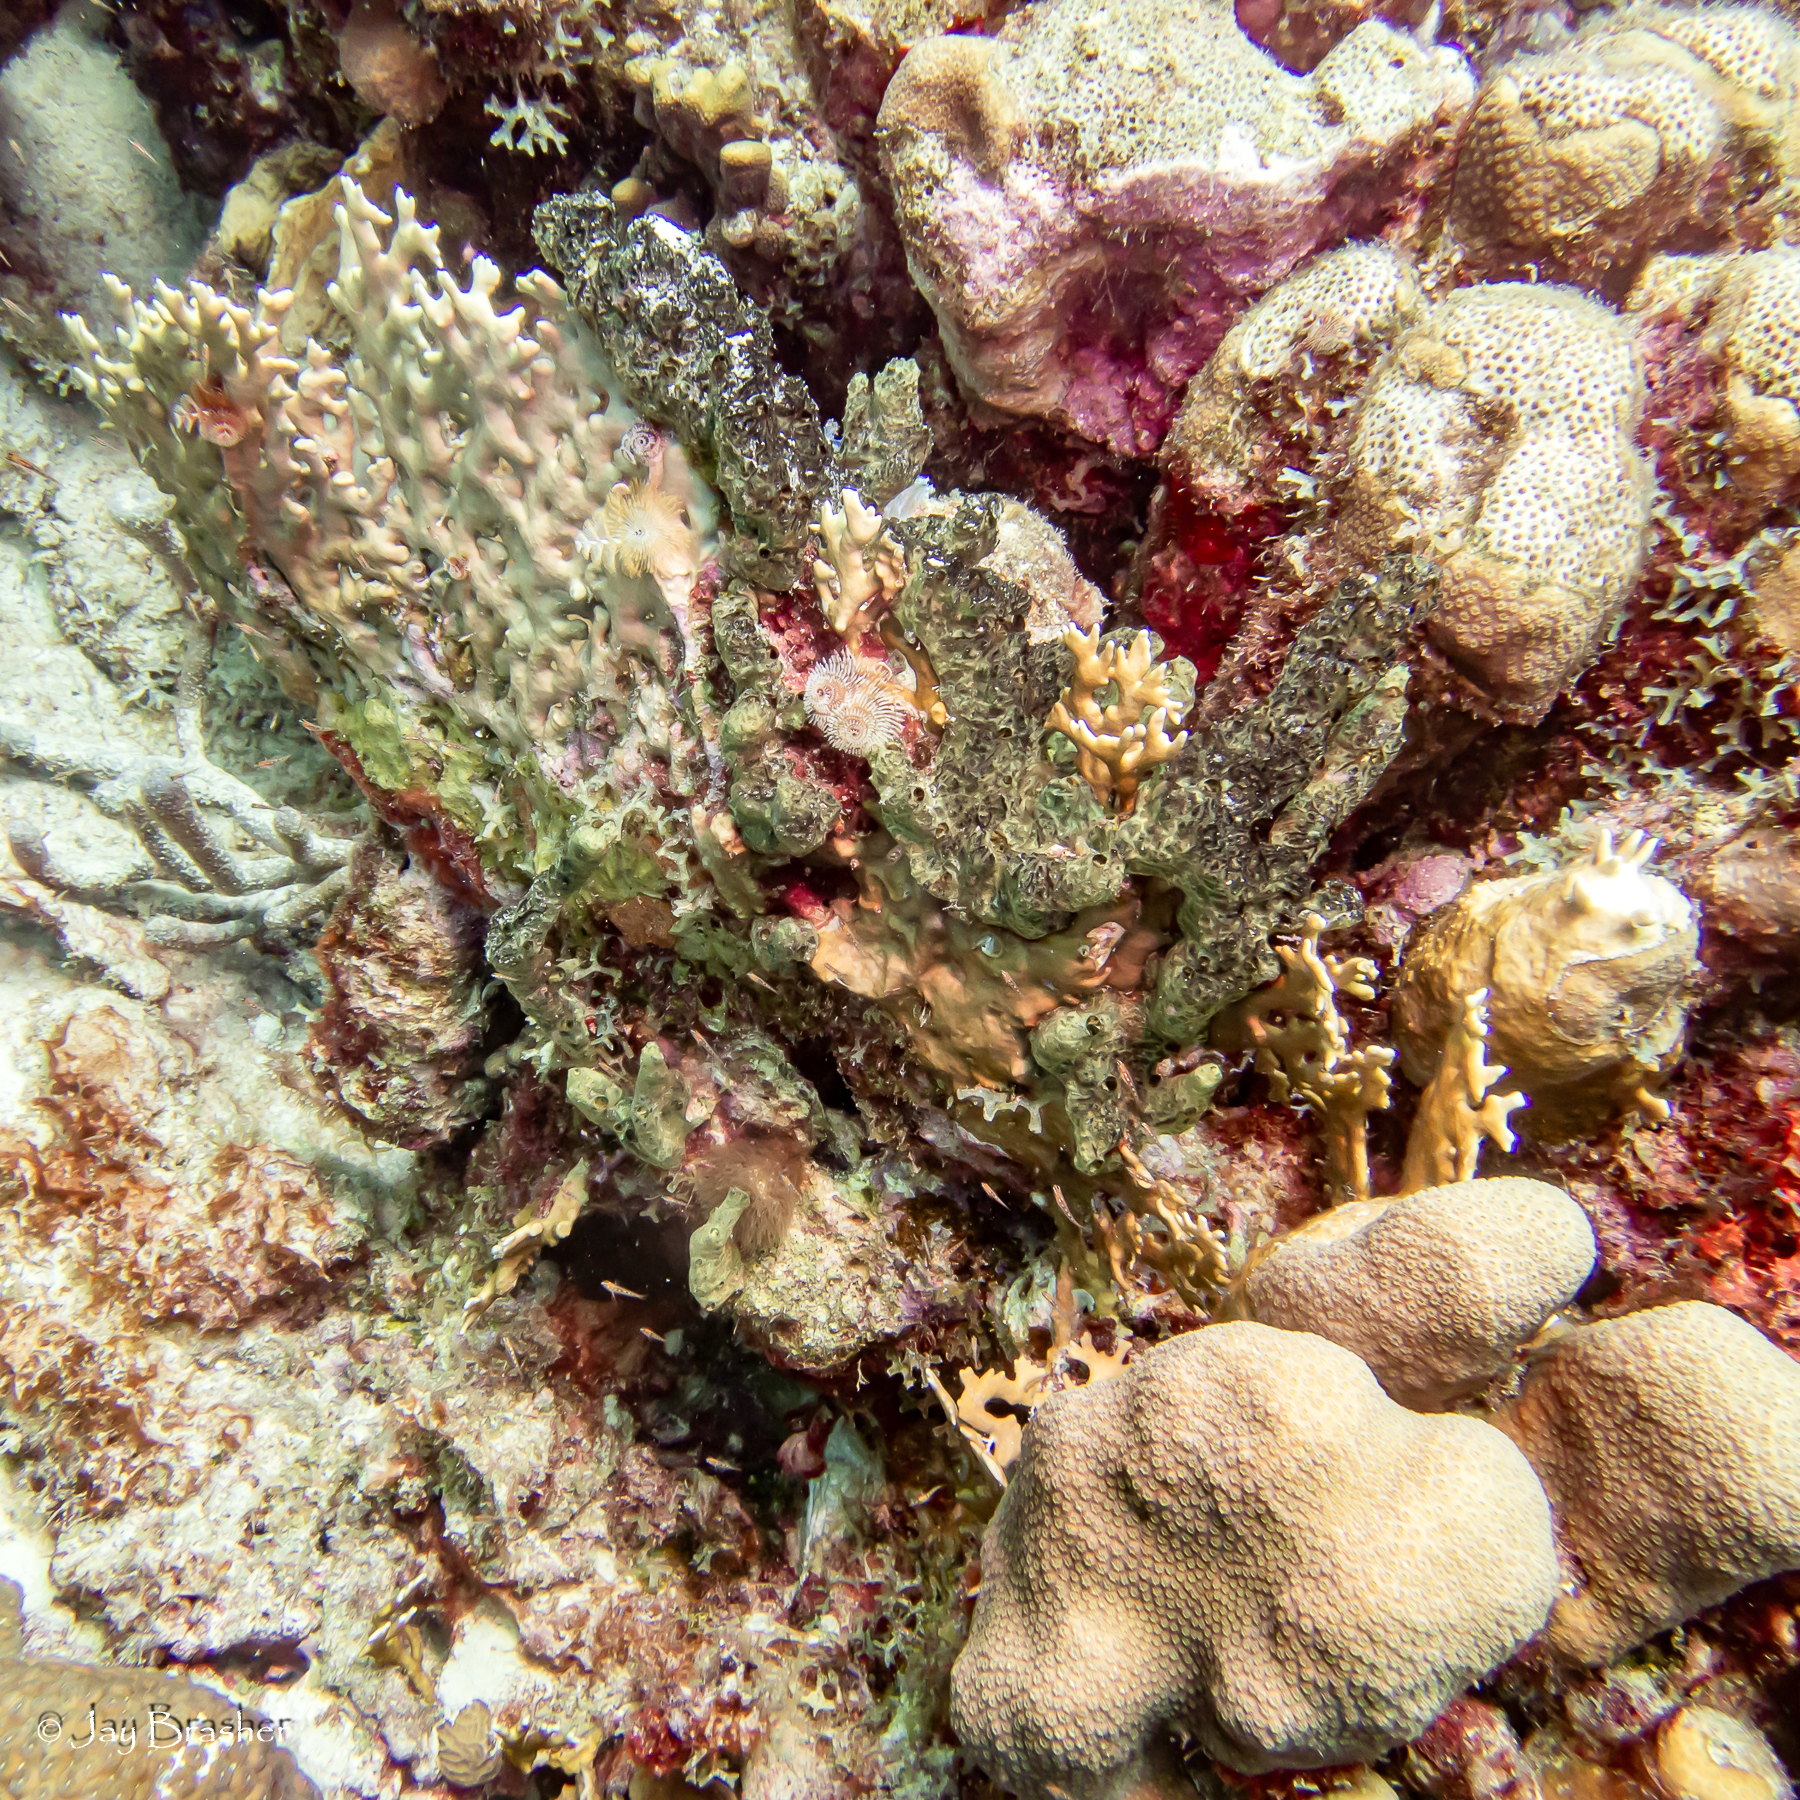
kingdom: Animalia
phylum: Cnidaria
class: Anthozoa
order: Scleractinia
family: Merulinidae
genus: Orbicella
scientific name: Orbicella annularis
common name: Boulder star coral
